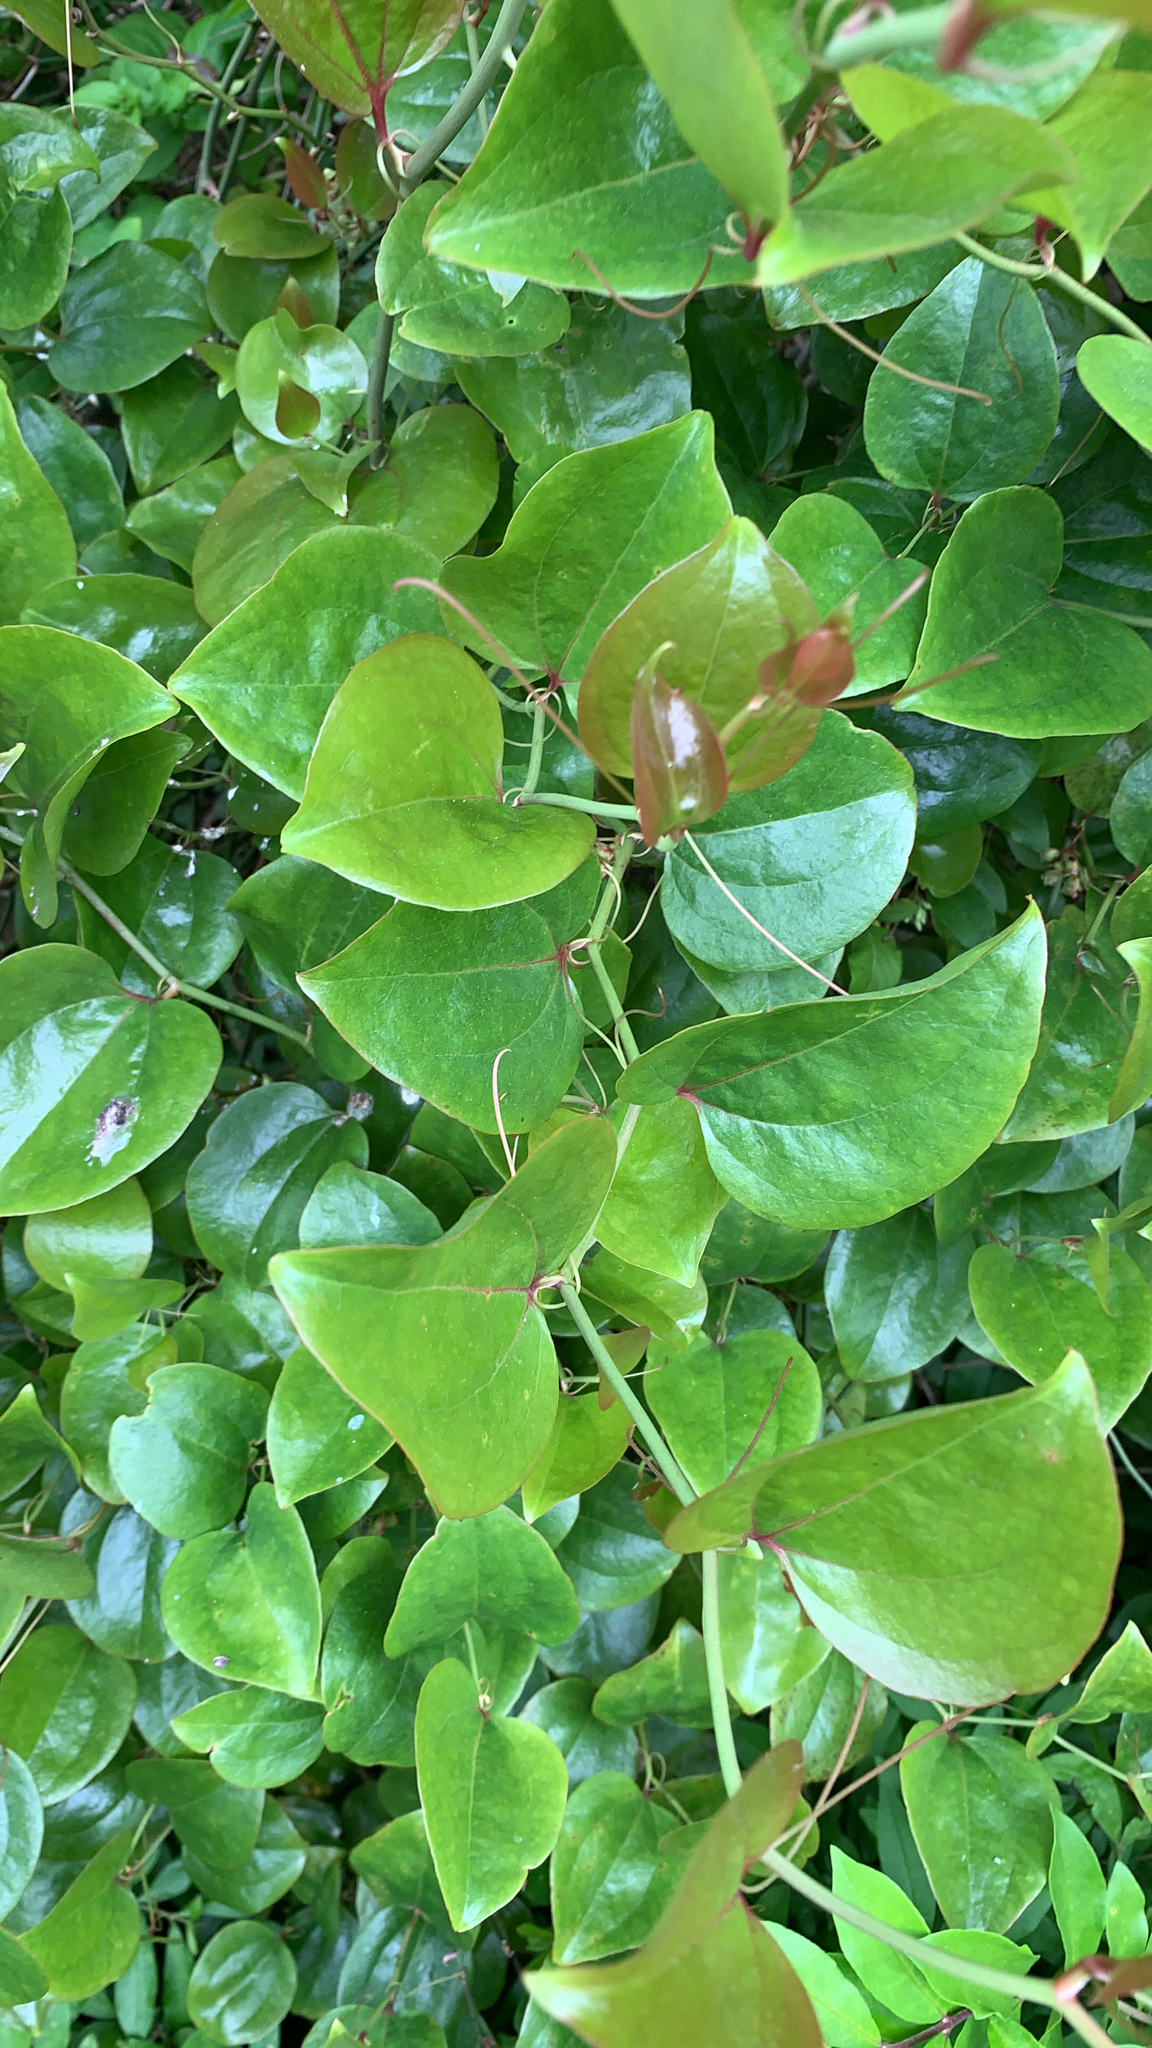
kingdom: Plantae
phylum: Tracheophyta
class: Liliopsida
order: Liliales
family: Smilacaceae
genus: Smilax
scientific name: Smilax rotundifolia
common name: Bullbriar
